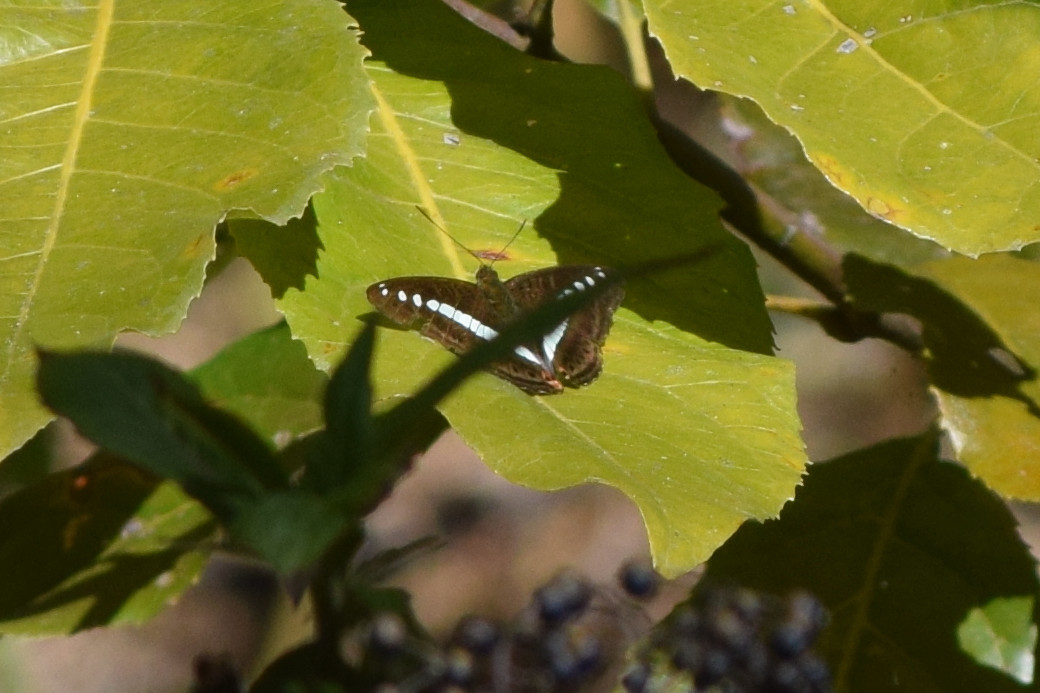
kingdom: Animalia
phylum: Arthropoda
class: Insecta
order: Lepidoptera
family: Nymphalidae
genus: Limenitis
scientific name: Limenitis Sumalia daraxa
